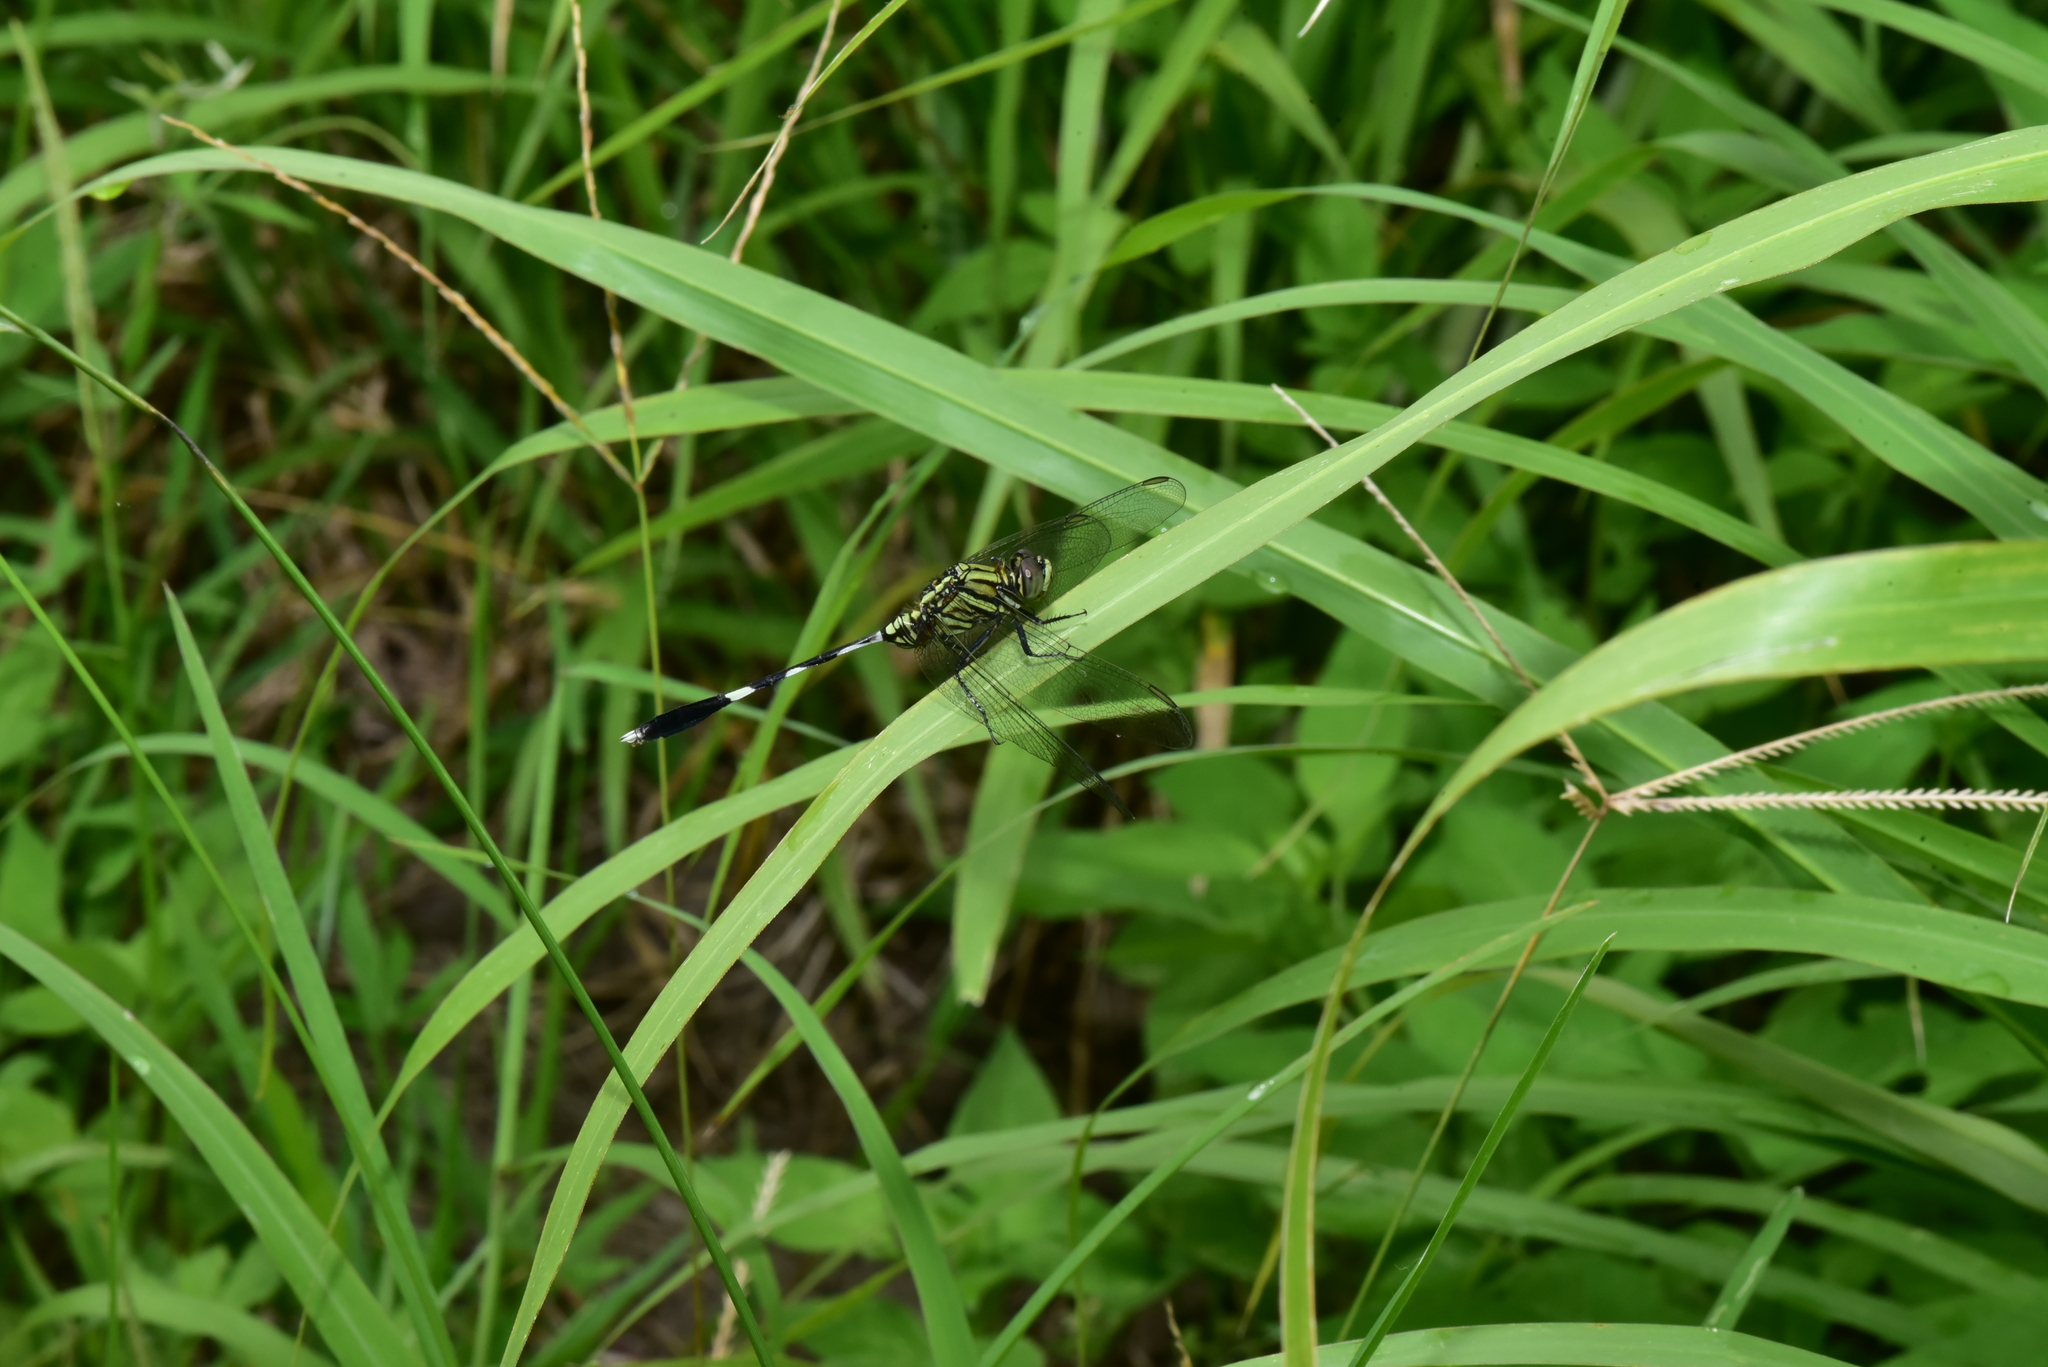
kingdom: Animalia
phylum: Arthropoda
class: Insecta
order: Odonata
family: Libellulidae
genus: Orthetrum
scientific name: Orthetrum sabina
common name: Slender skimmer
